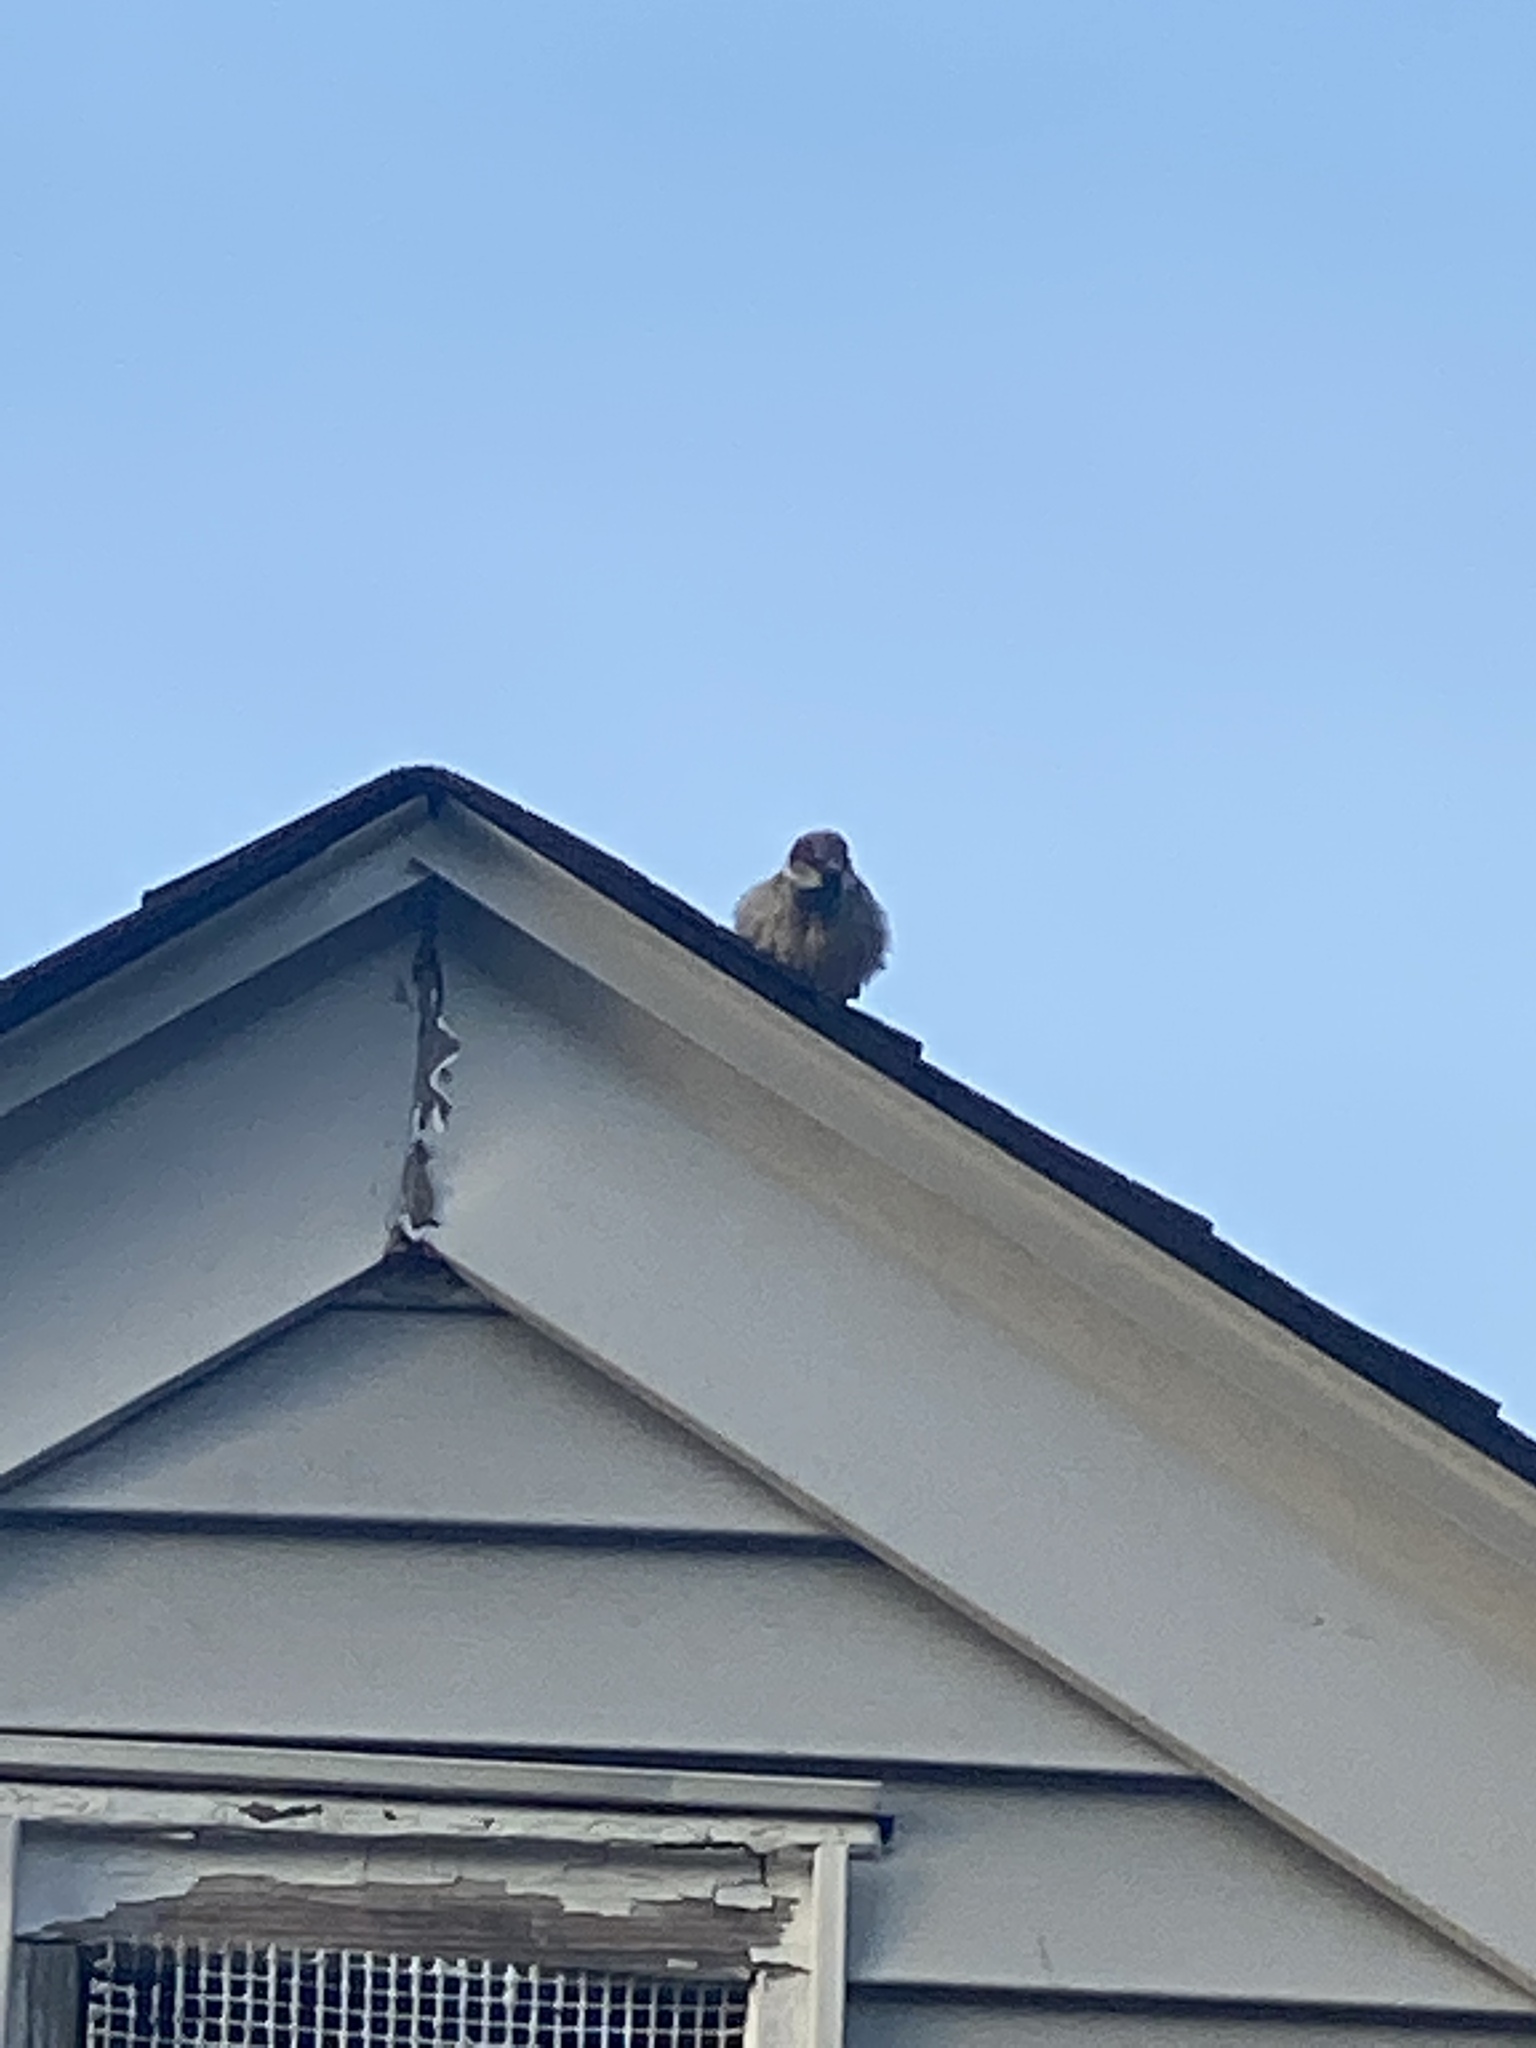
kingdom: Animalia
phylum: Chordata
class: Aves
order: Passeriformes
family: Passeridae
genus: Passer
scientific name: Passer domesticus
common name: House sparrow
